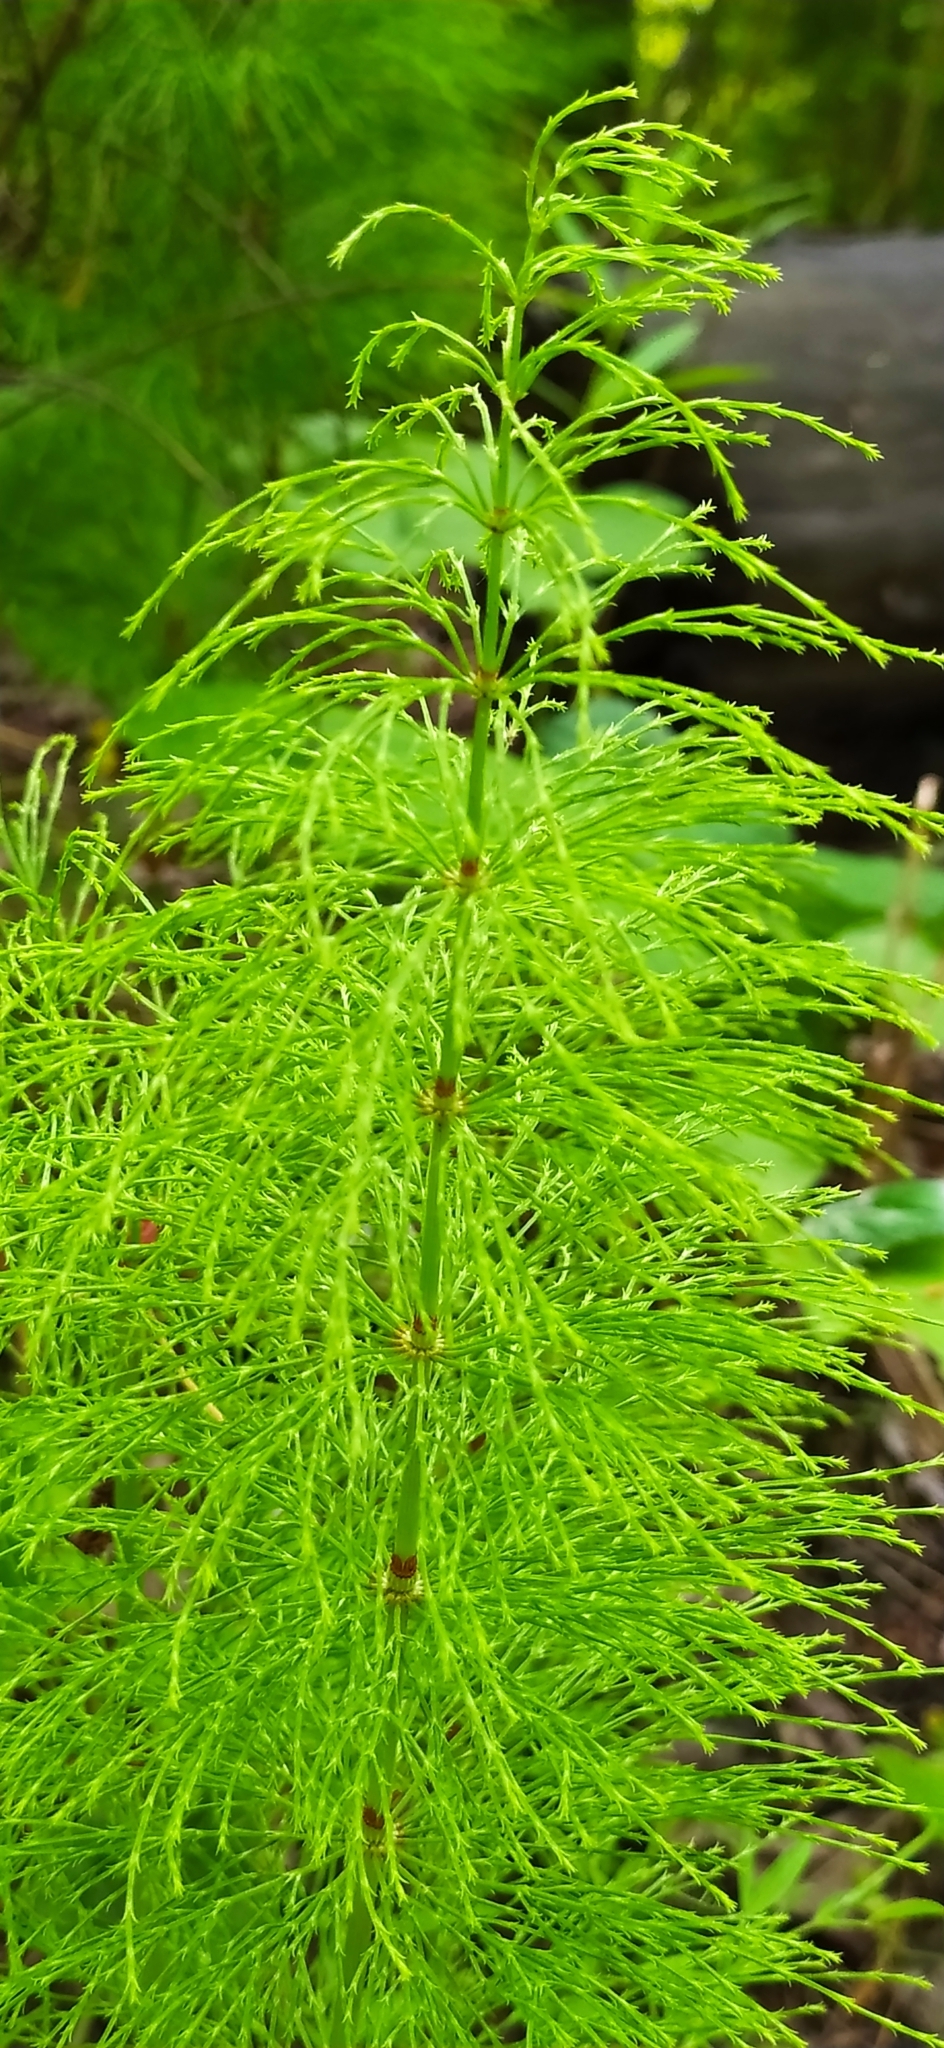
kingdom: Plantae
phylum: Tracheophyta
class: Polypodiopsida
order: Equisetales
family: Equisetaceae
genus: Equisetum
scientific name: Equisetum sylvaticum
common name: Wood horsetail
